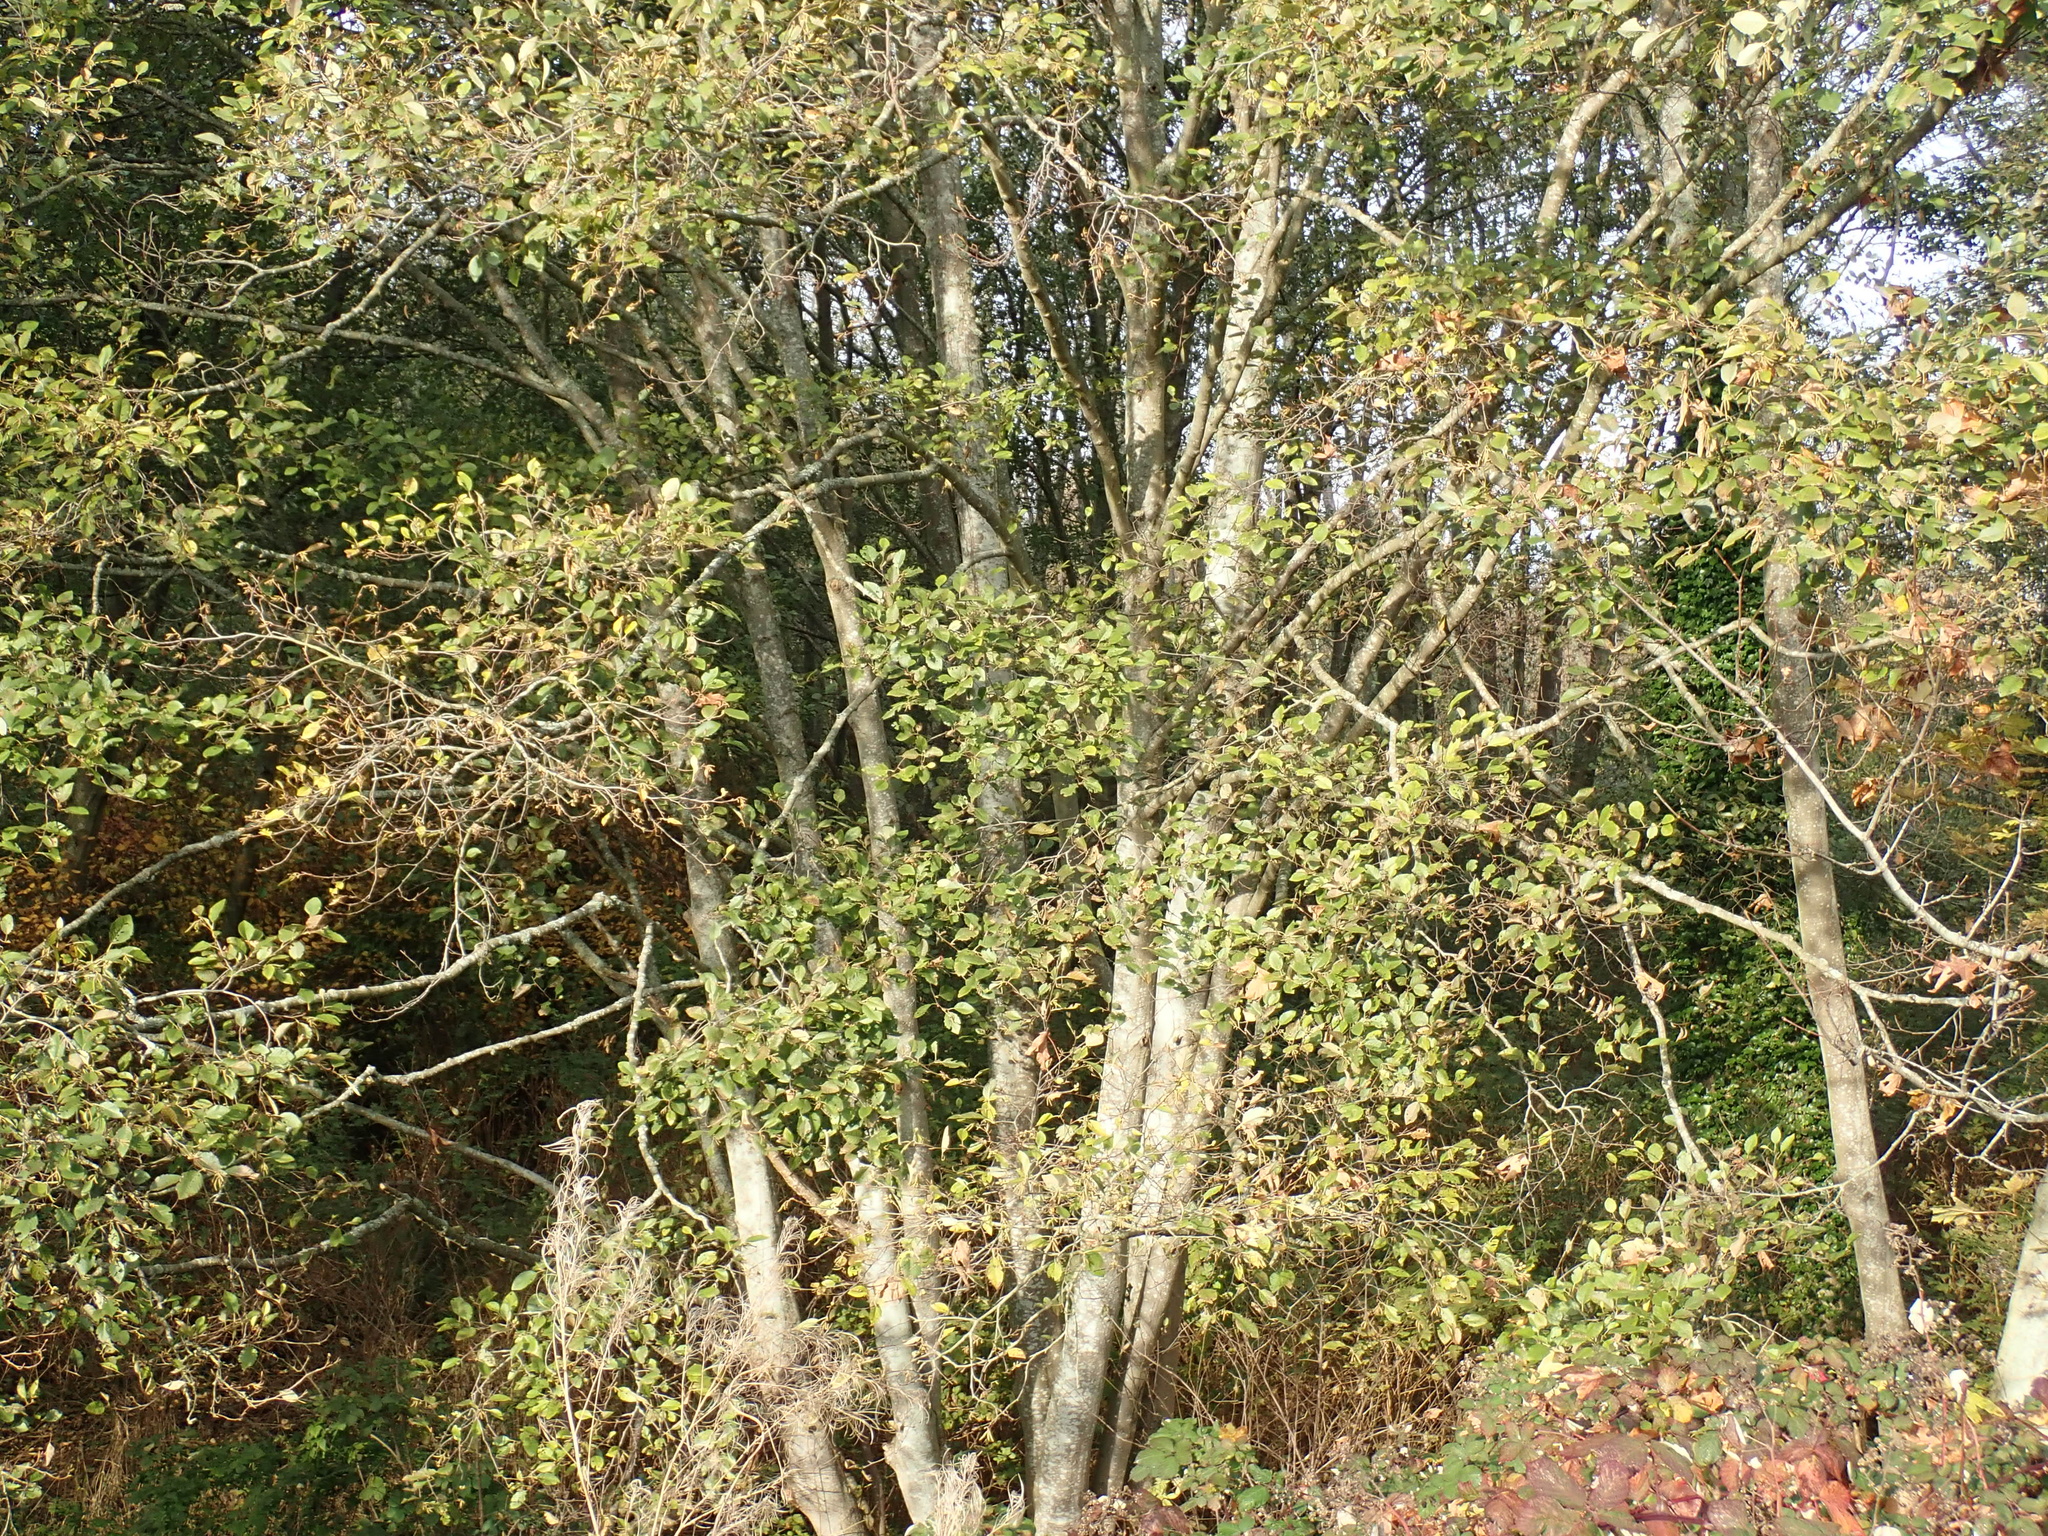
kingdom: Plantae
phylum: Tracheophyta
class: Magnoliopsida
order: Fagales
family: Betulaceae
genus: Alnus
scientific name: Alnus rubra
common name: Red alder
